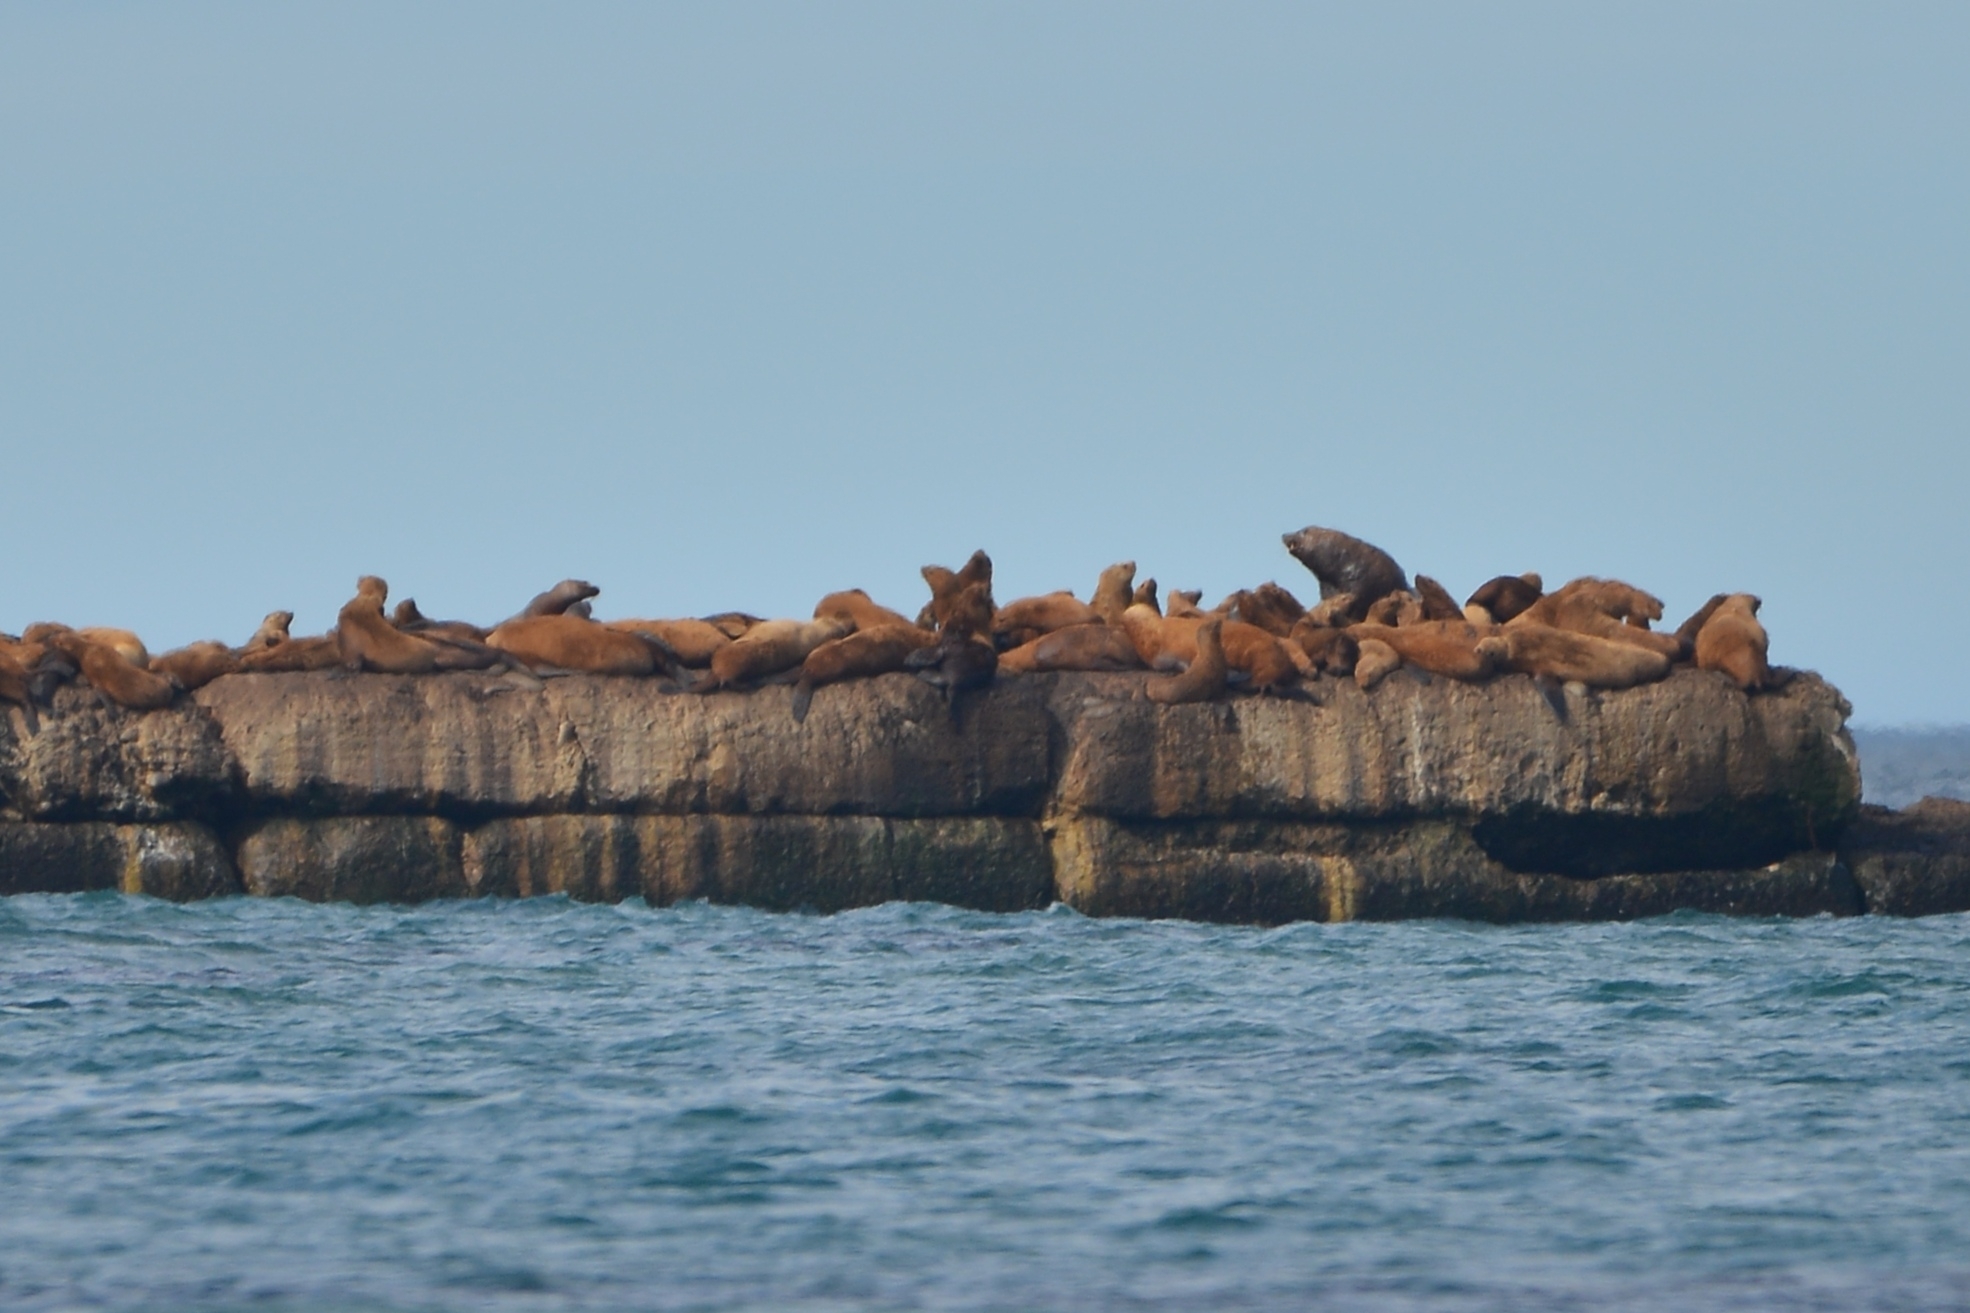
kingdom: Animalia
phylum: Chordata
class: Mammalia
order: Carnivora
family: Otariidae
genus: Eumetopias
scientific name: Eumetopias jubatus
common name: Steller sea lion
